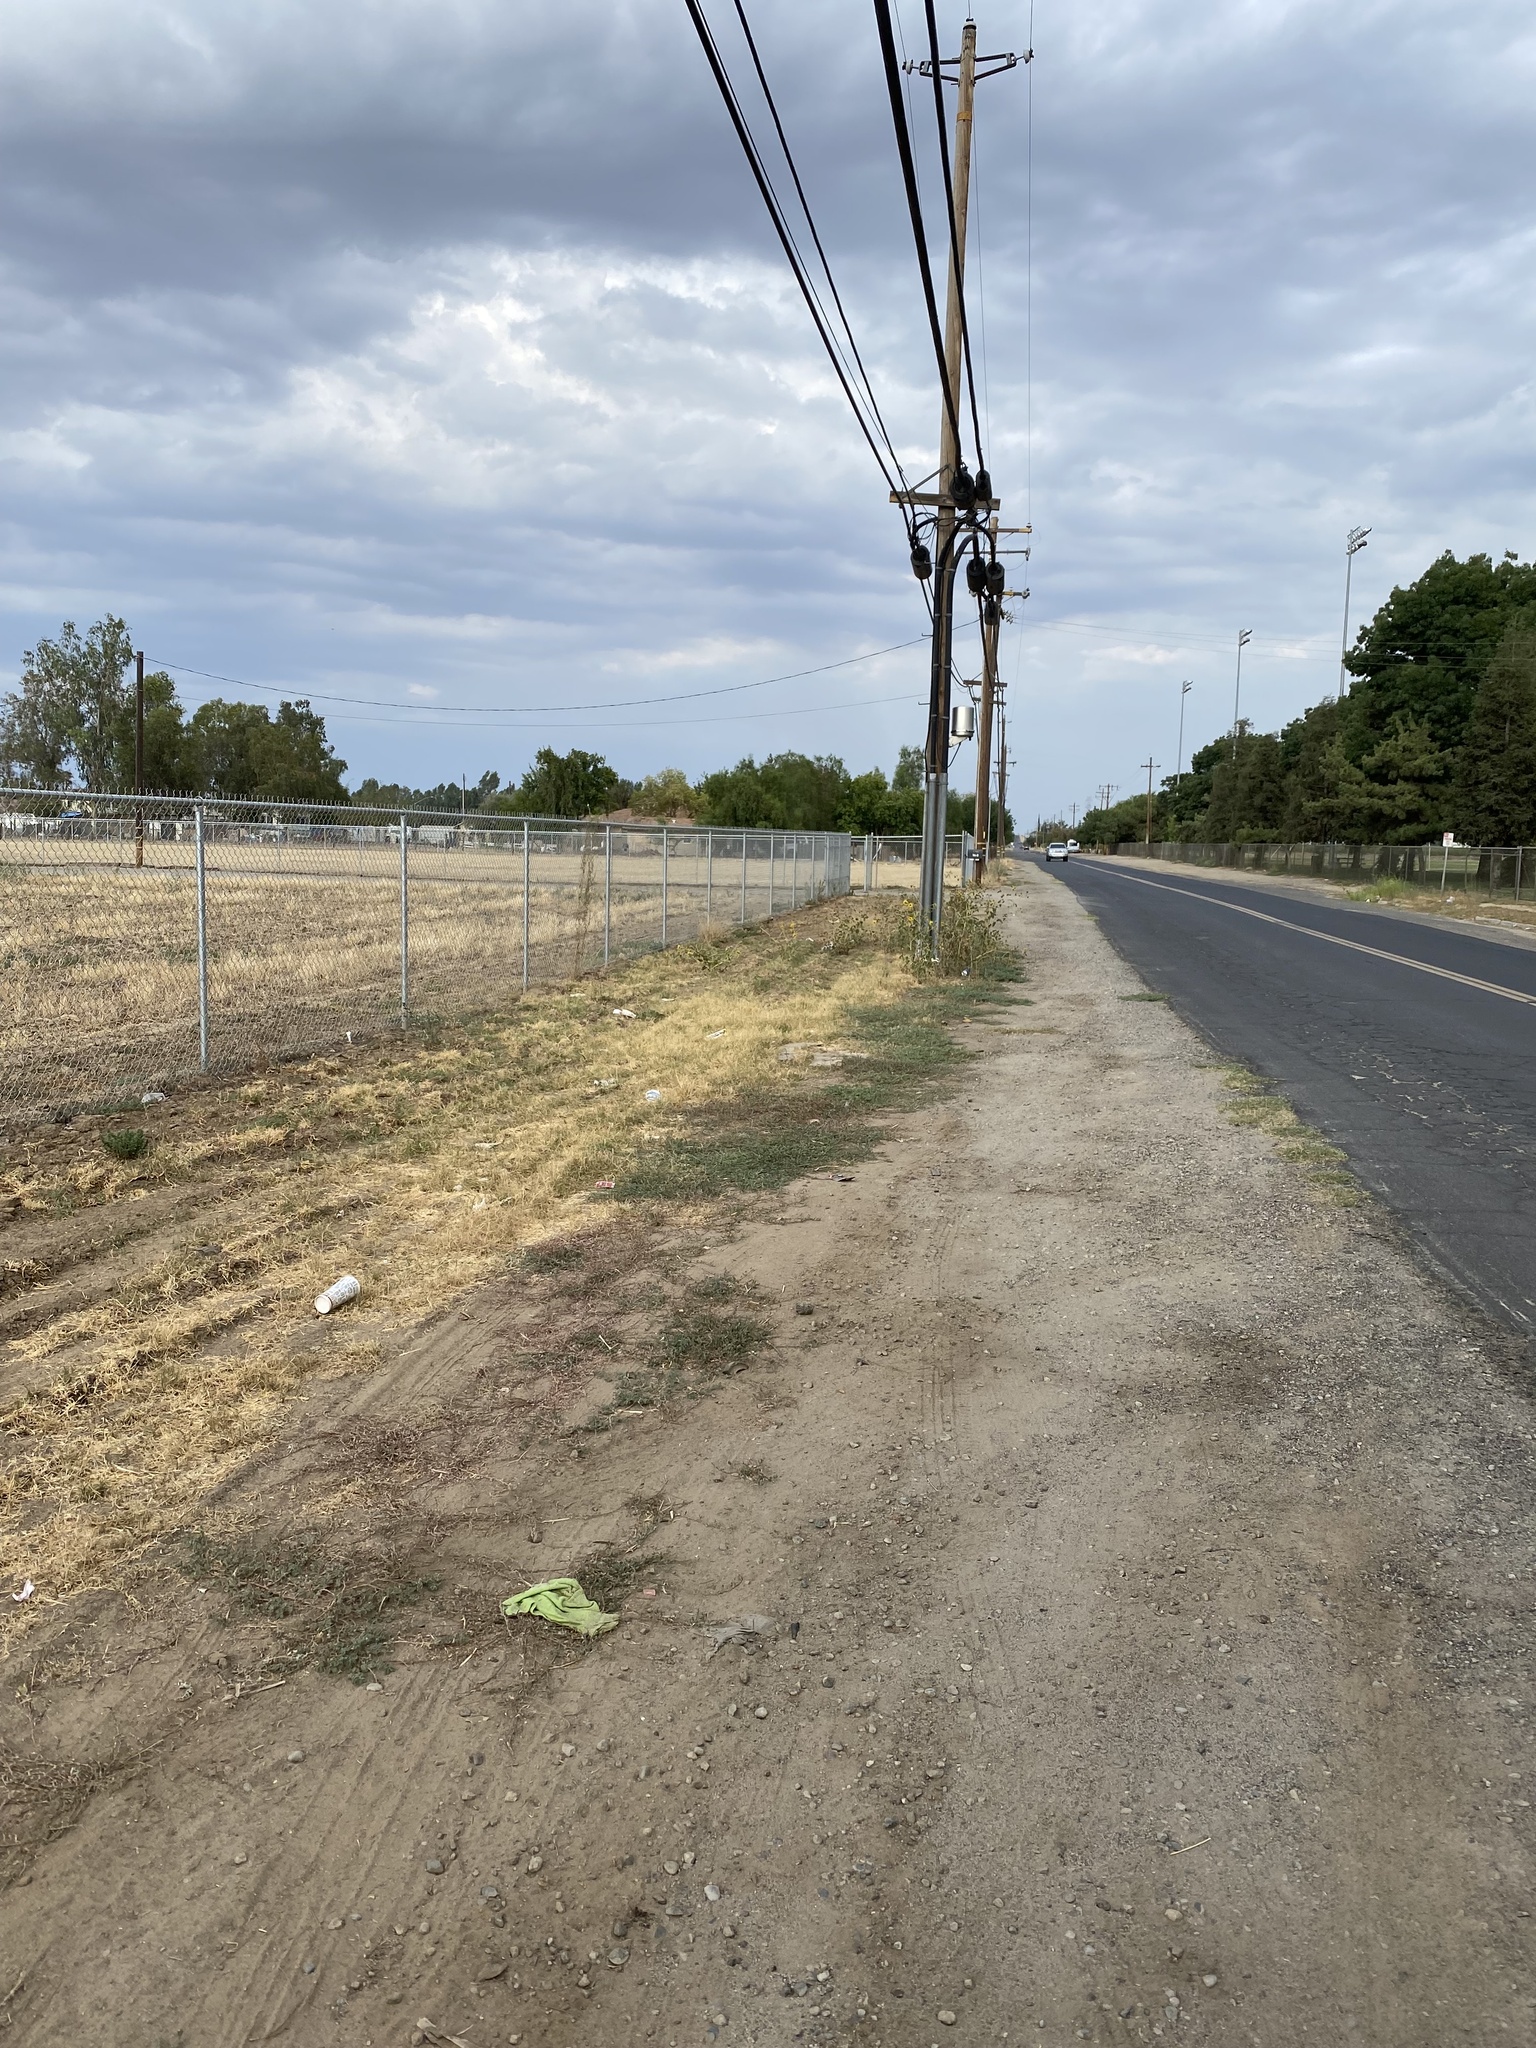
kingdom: Plantae
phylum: Tracheophyta
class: Magnoliopsida
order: Zygophyllales
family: Zygophyllaceae
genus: Tribulus
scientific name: Tribulus terrestris
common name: Puncturevine
